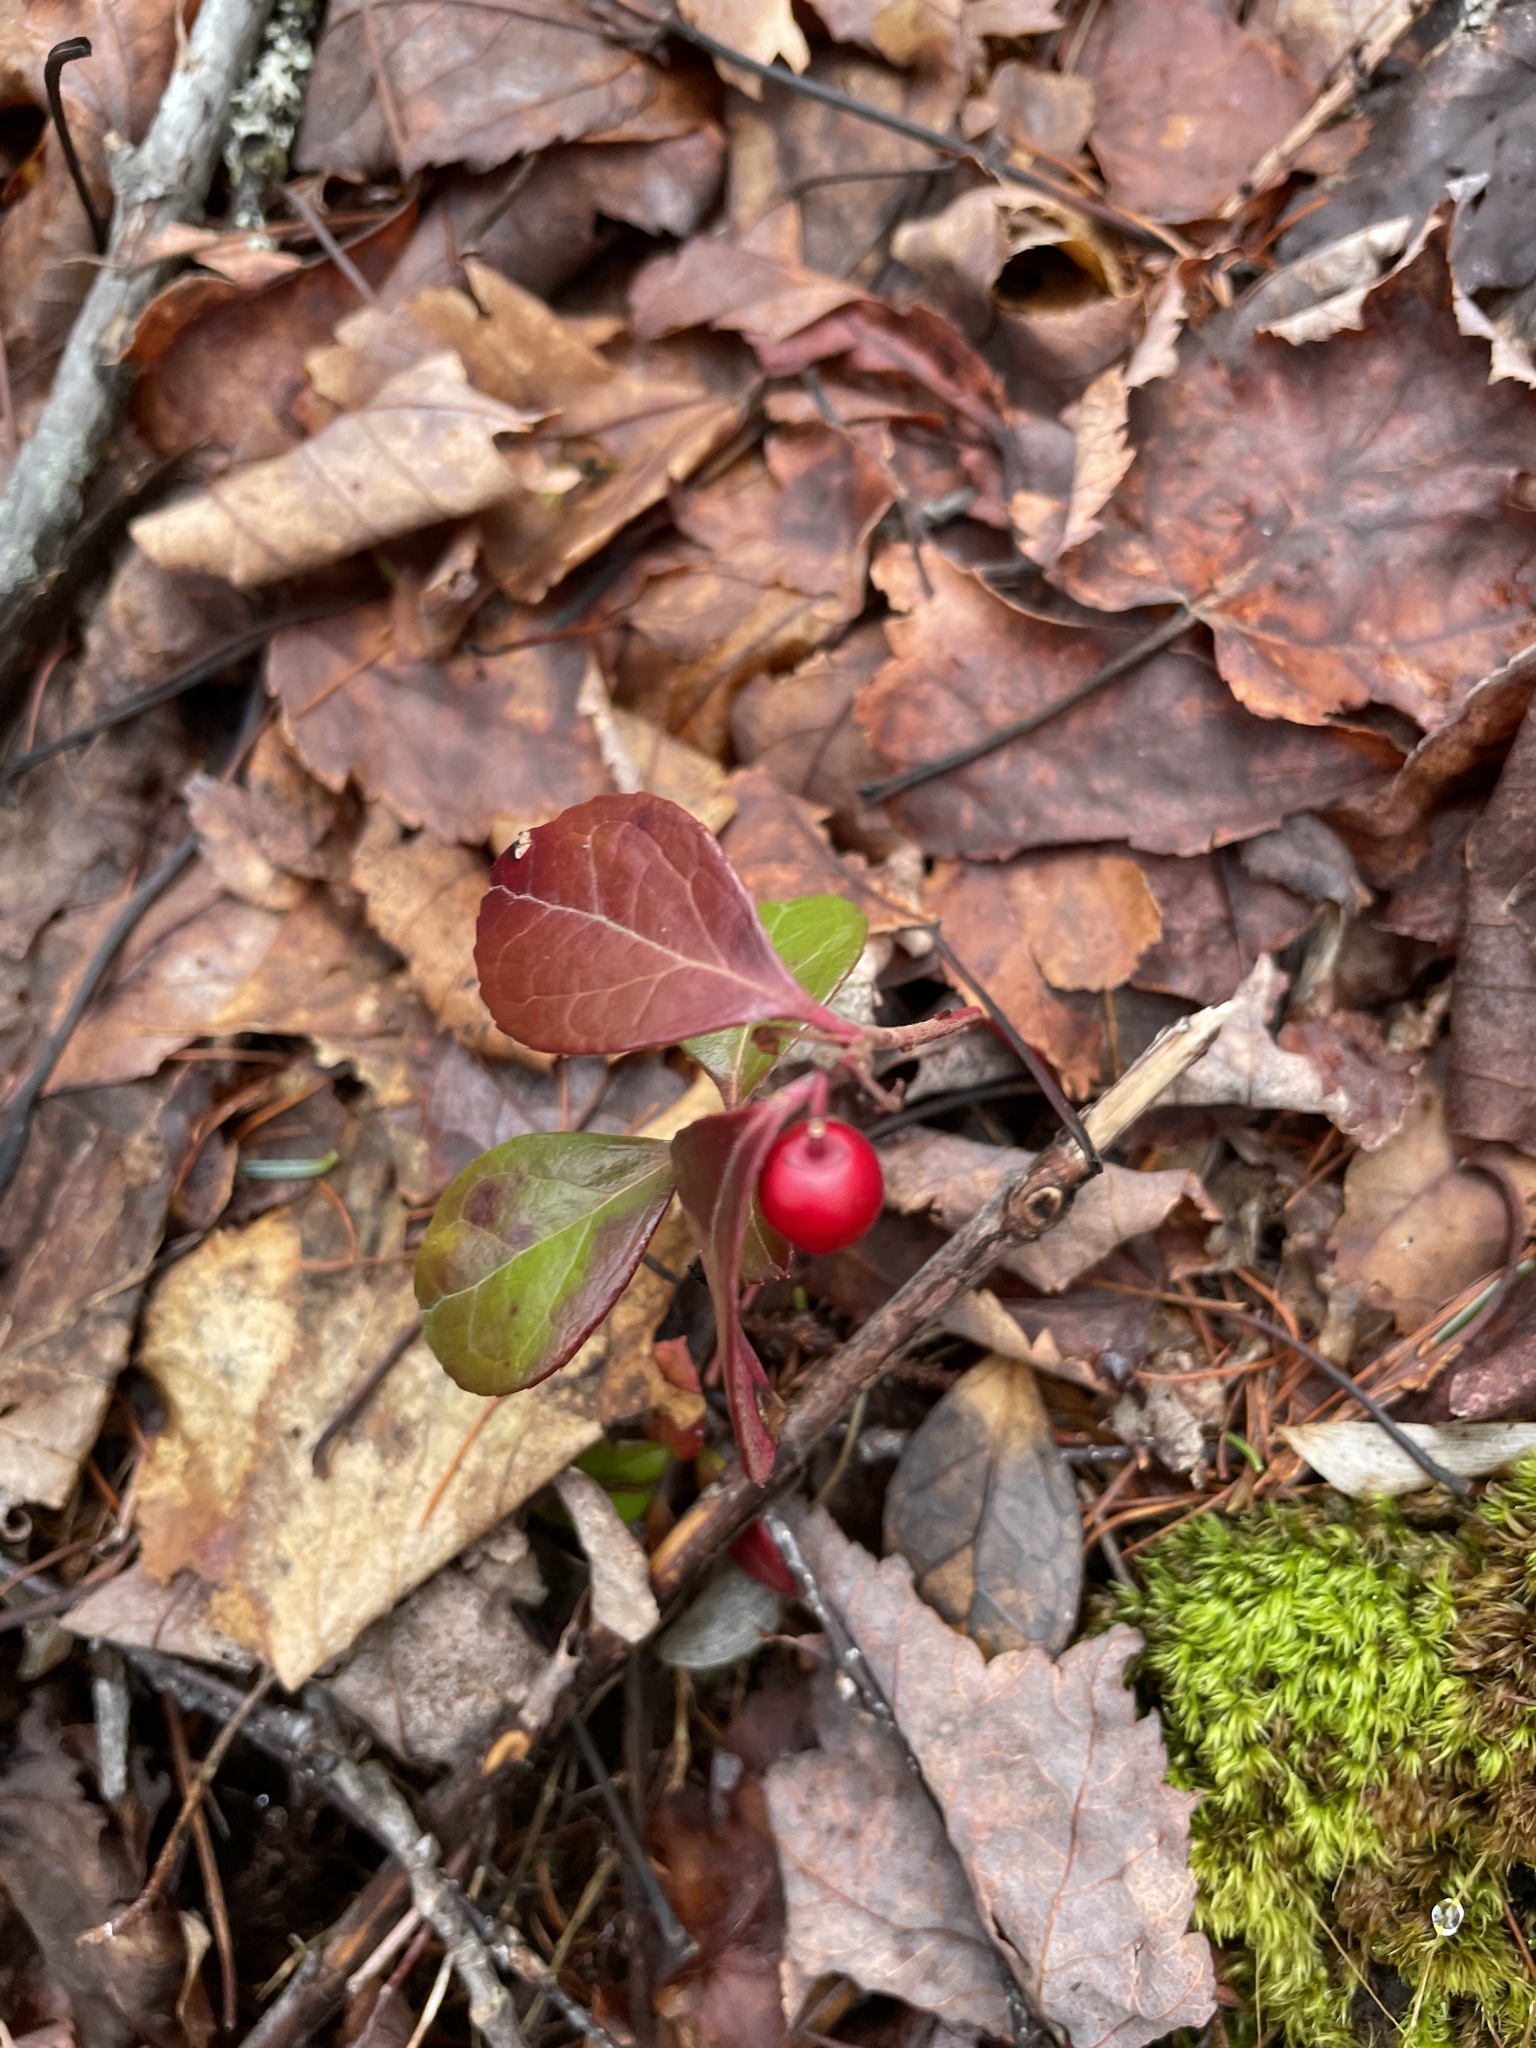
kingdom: Plantae
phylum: Tracheophyta
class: Magnoliopsida
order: Ericales
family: Ericaceae
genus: Gaultheria
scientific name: Gaultheria procumbens
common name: Checkerberry
